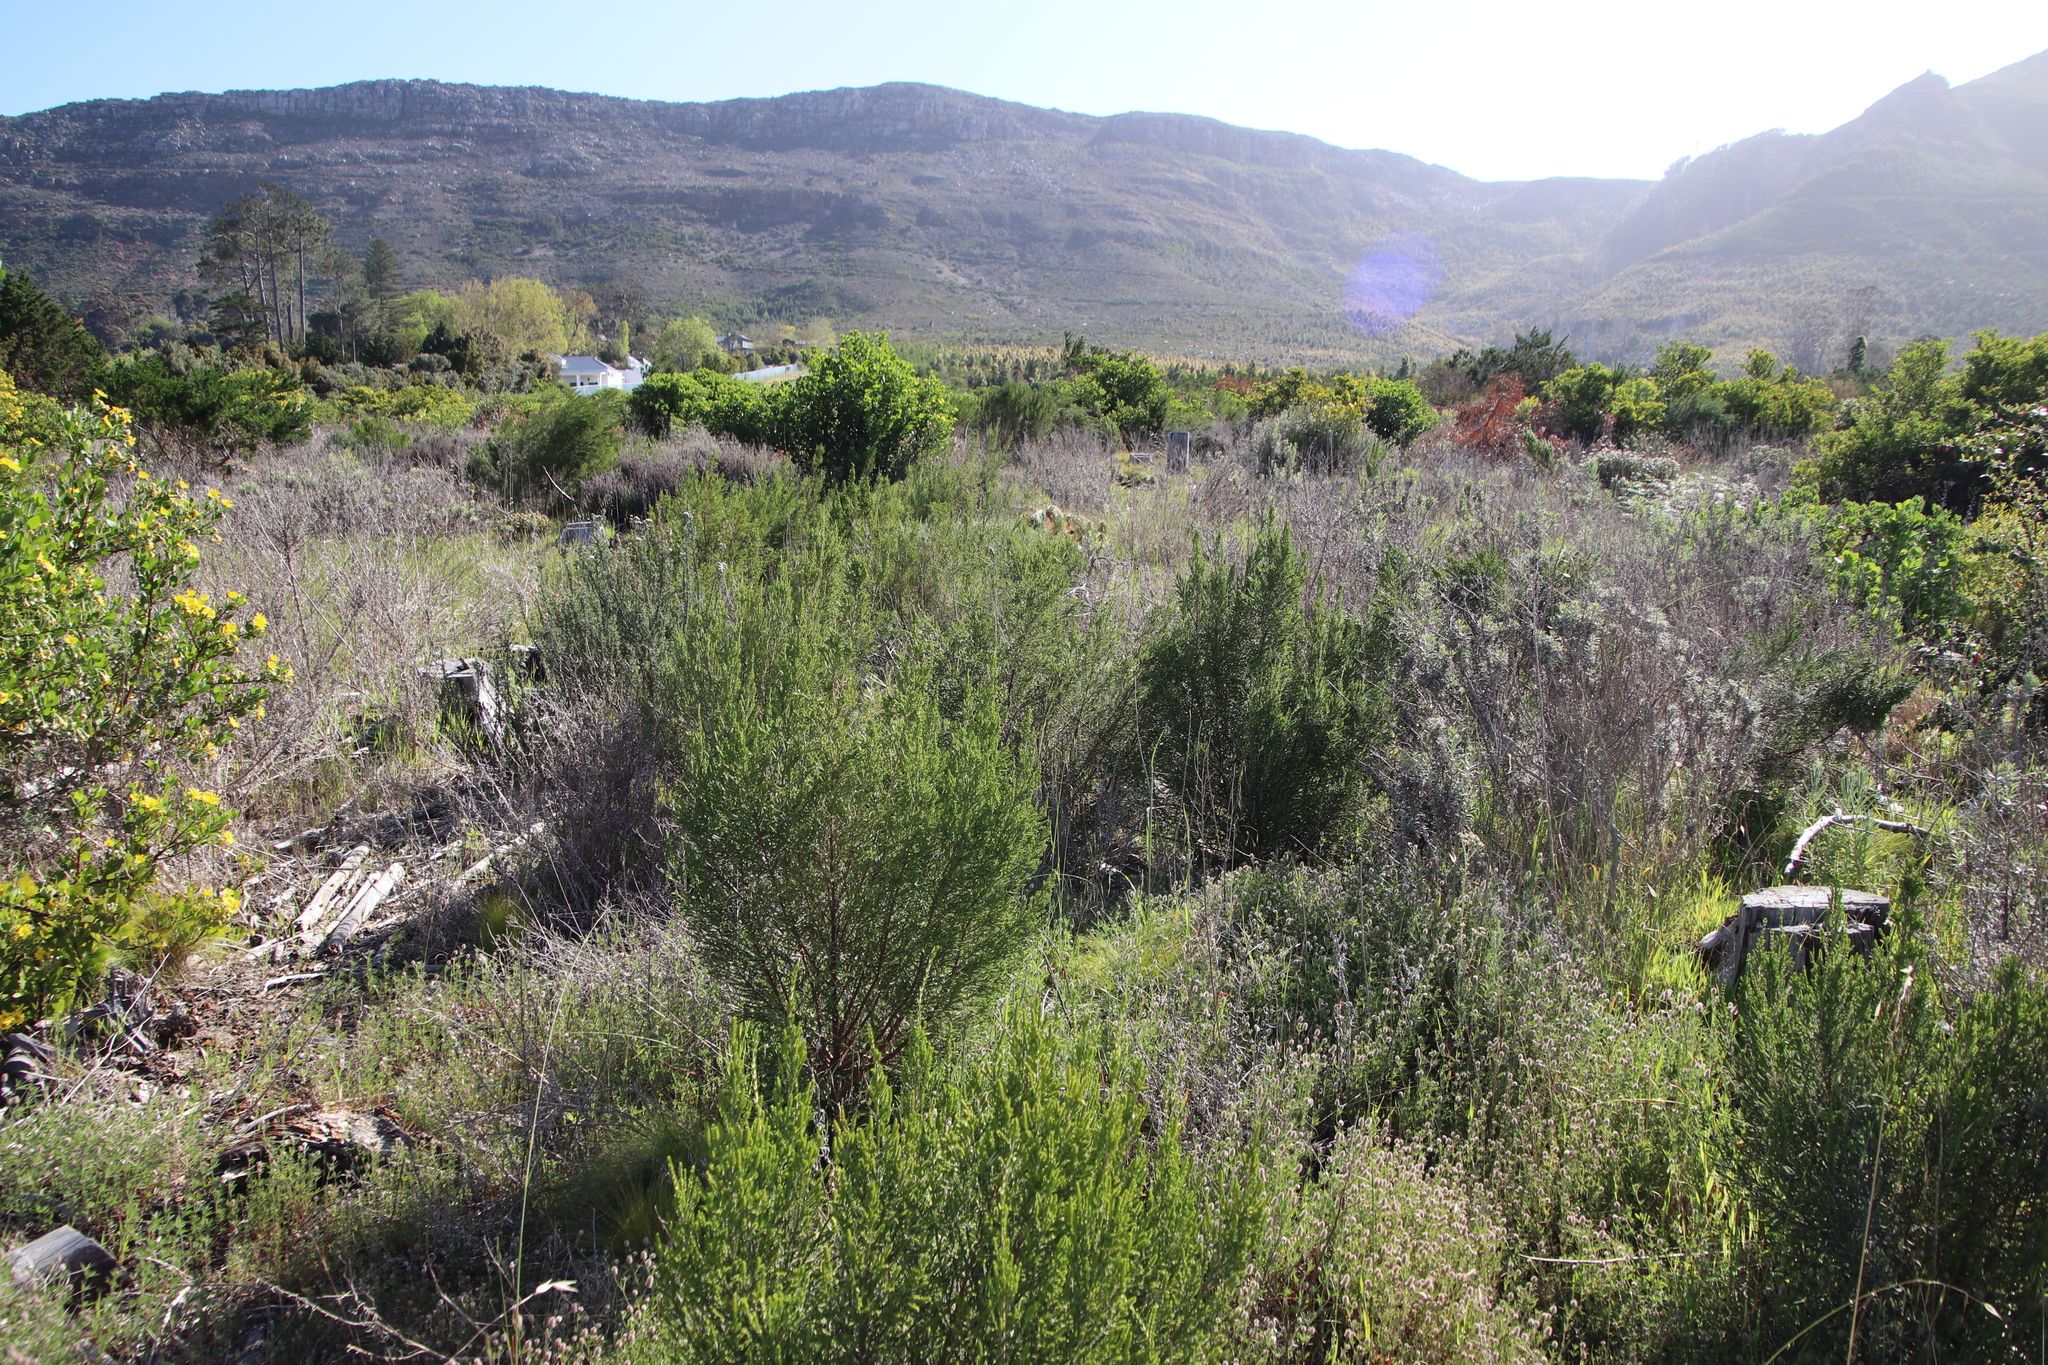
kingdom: Plantae
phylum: Tracheophyta
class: Magnoliopsida
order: Malvales
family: Thymelaeaceae
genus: Passerina
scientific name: Passerina corymbosa
